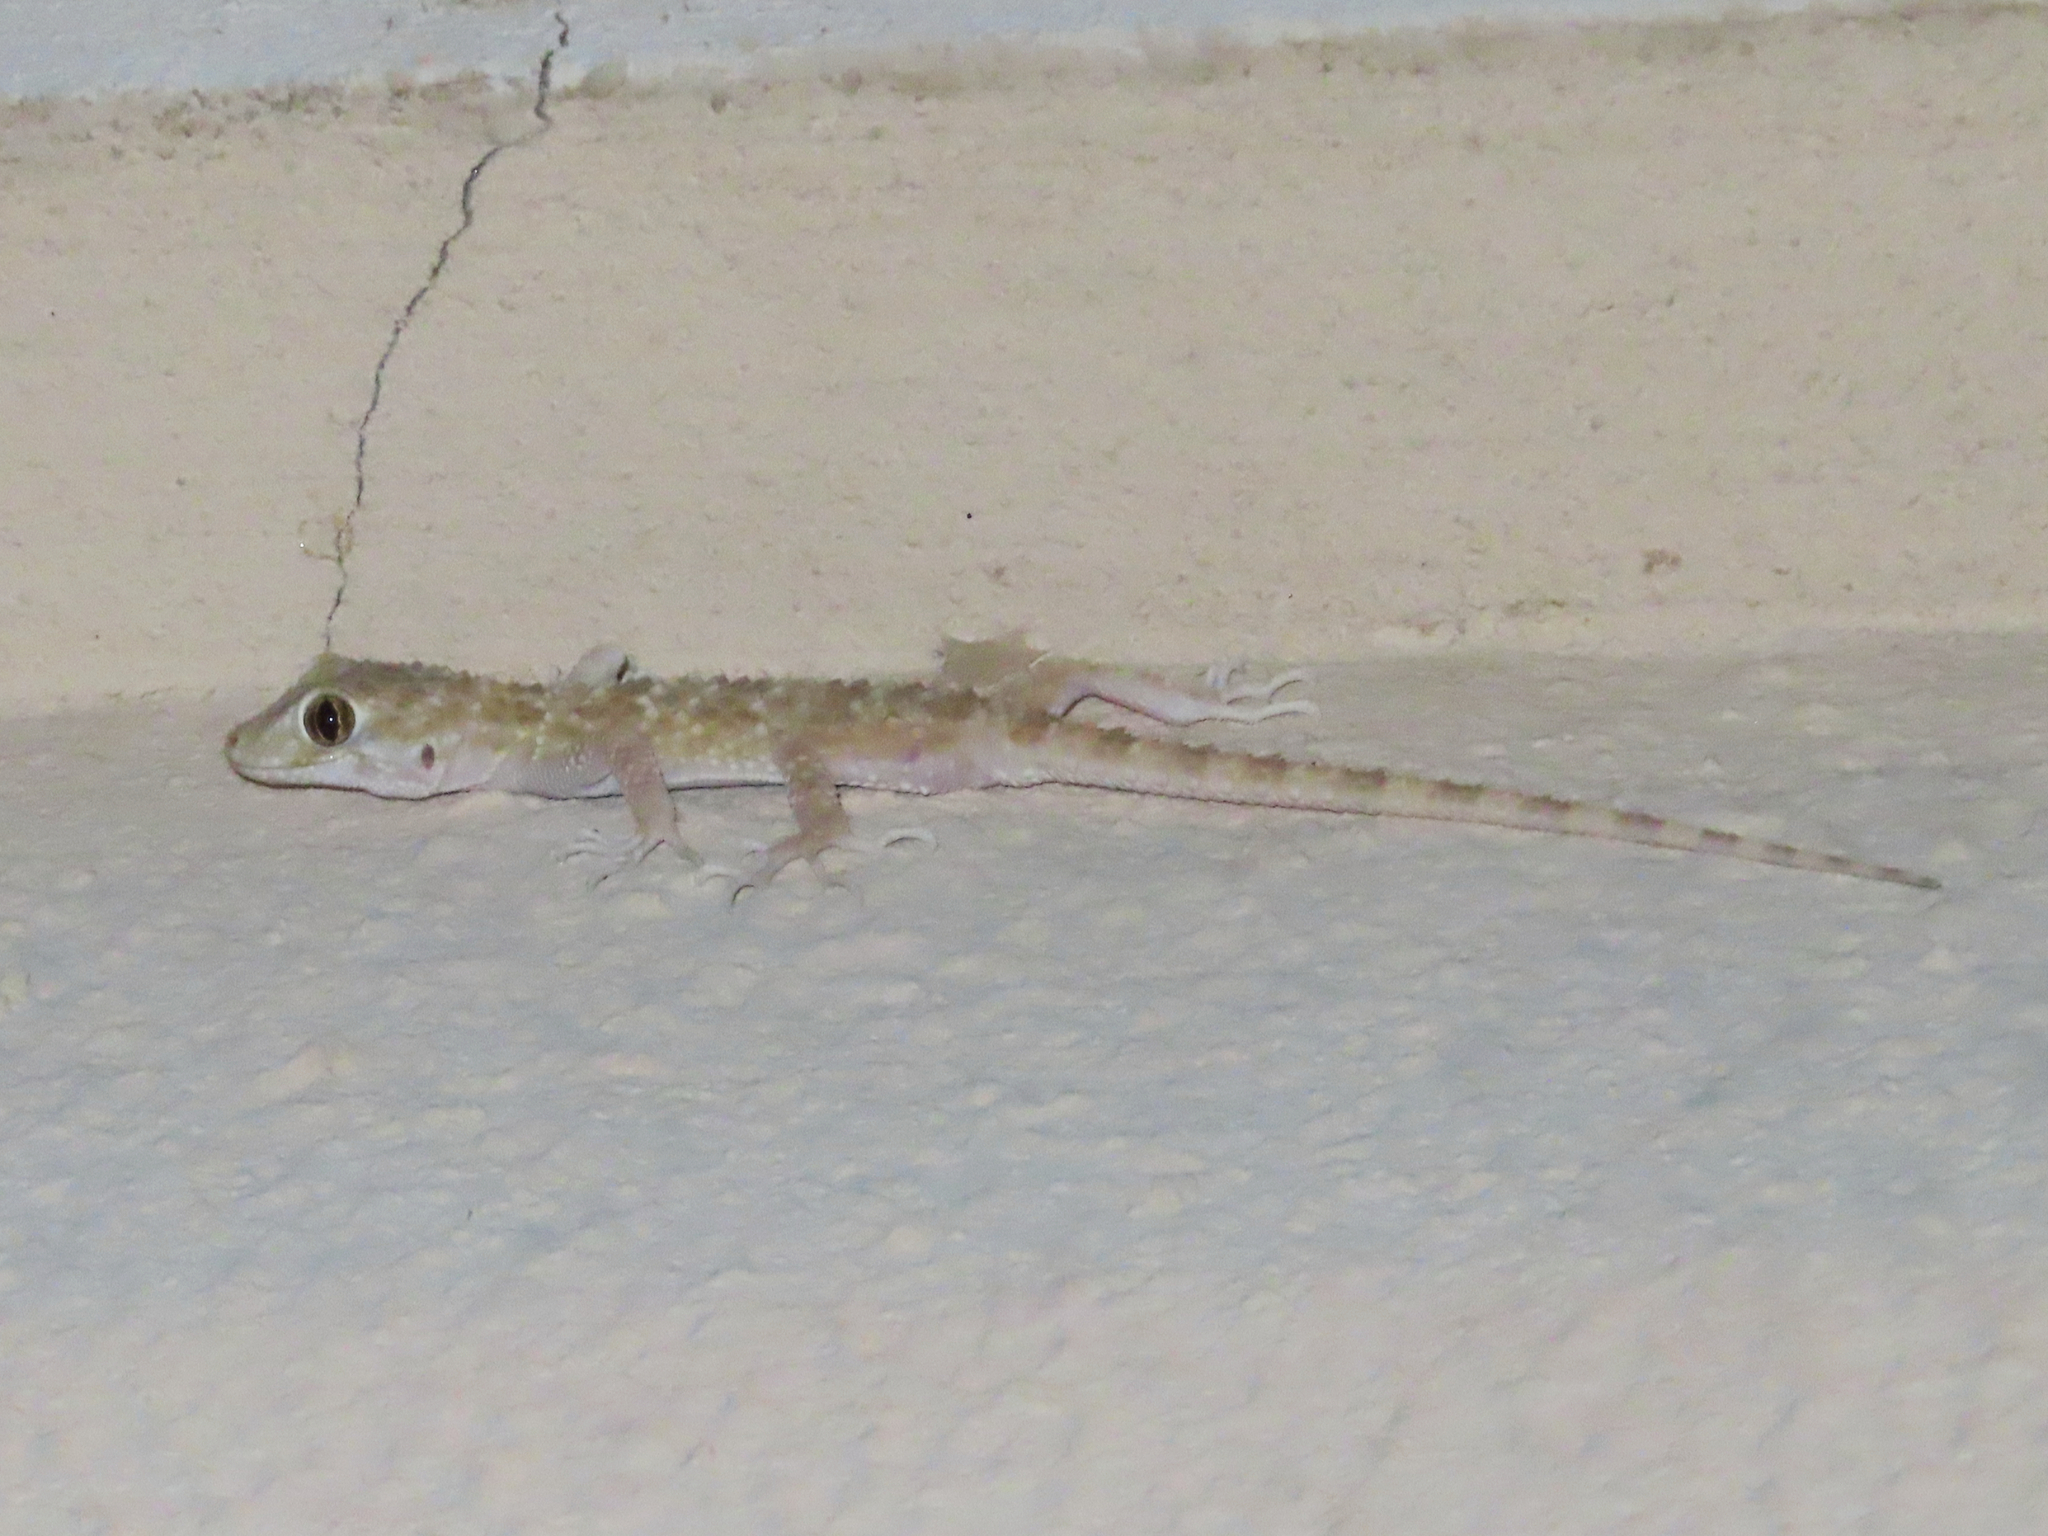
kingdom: Animalia
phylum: Chordata
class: Squamata
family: Gekkonidae
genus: Tenuidactylus
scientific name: Tenuidactylus caspius
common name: Caspian bent-toed gecko
